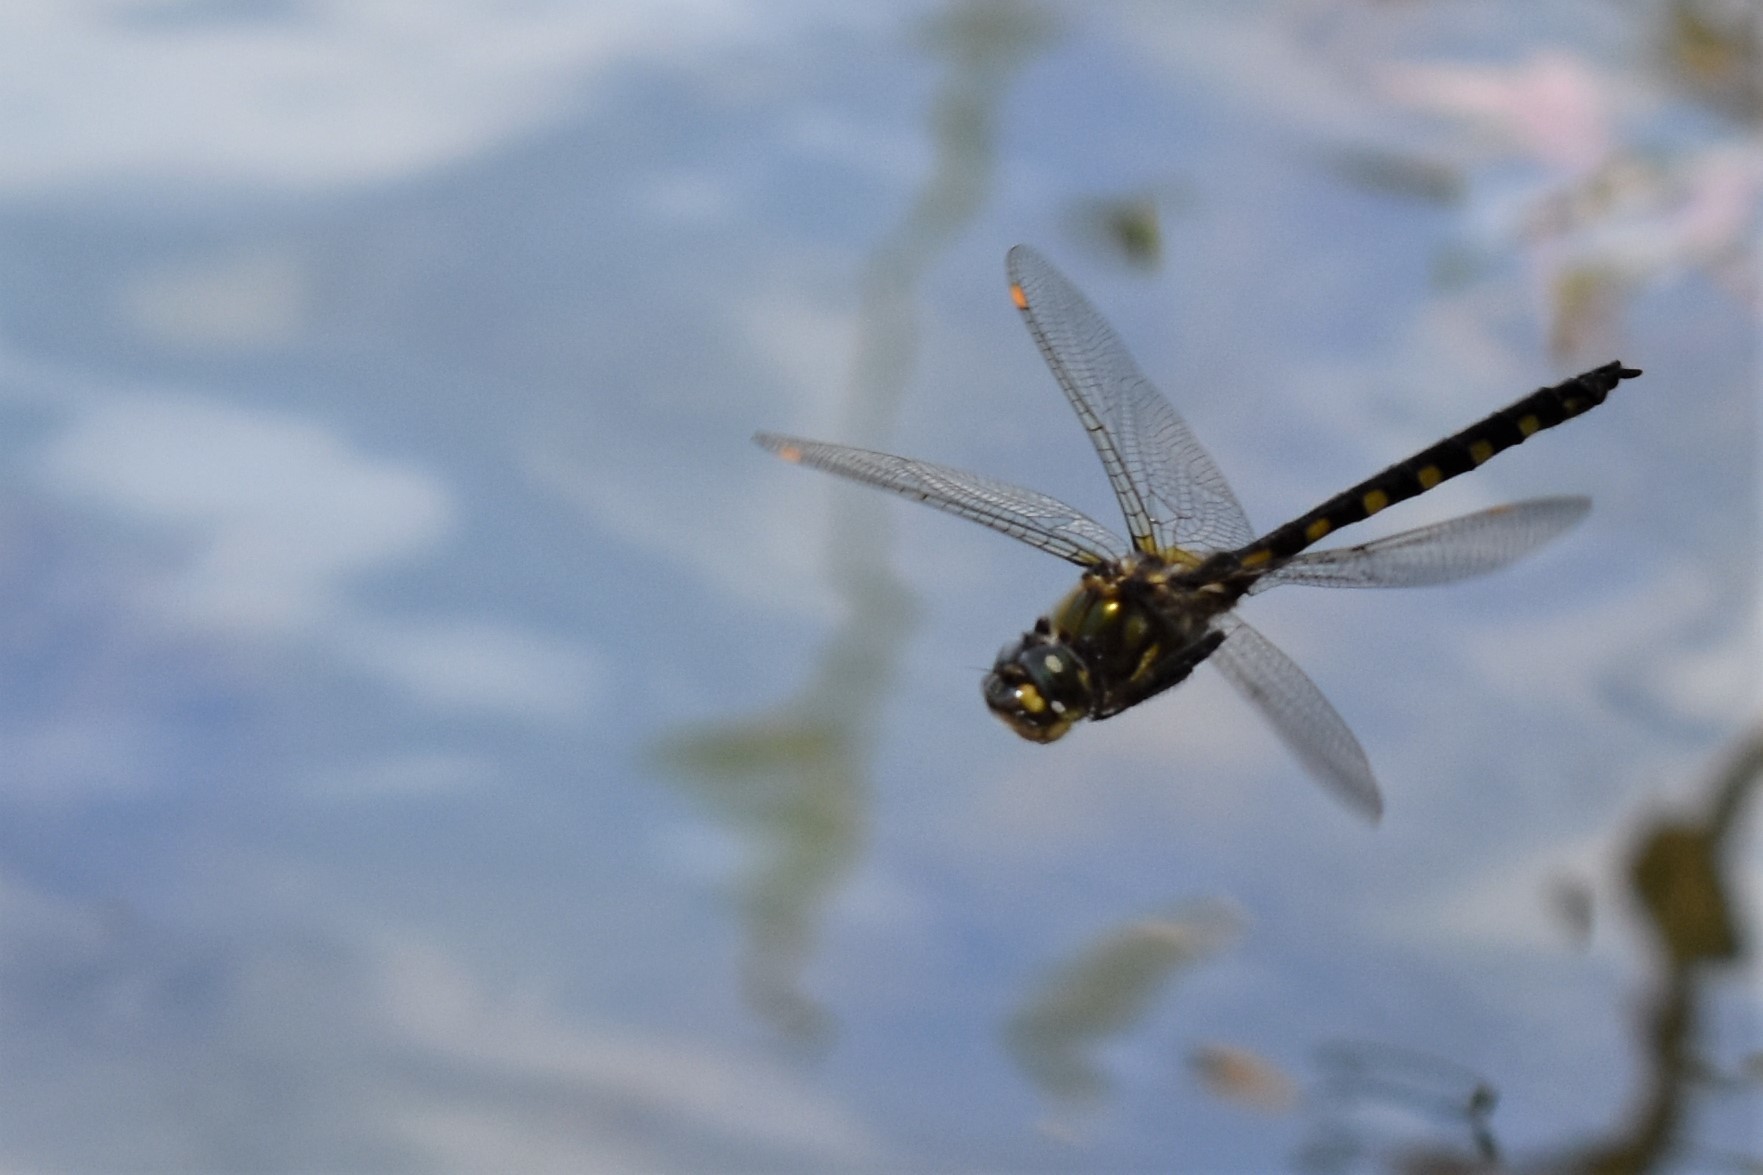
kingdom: Animalia
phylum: Arthropoda
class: Insecta
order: Odonata
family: Corduliidae
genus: Procordulia
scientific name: Procordulia grayi
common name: Yellow spotted dragonfly
